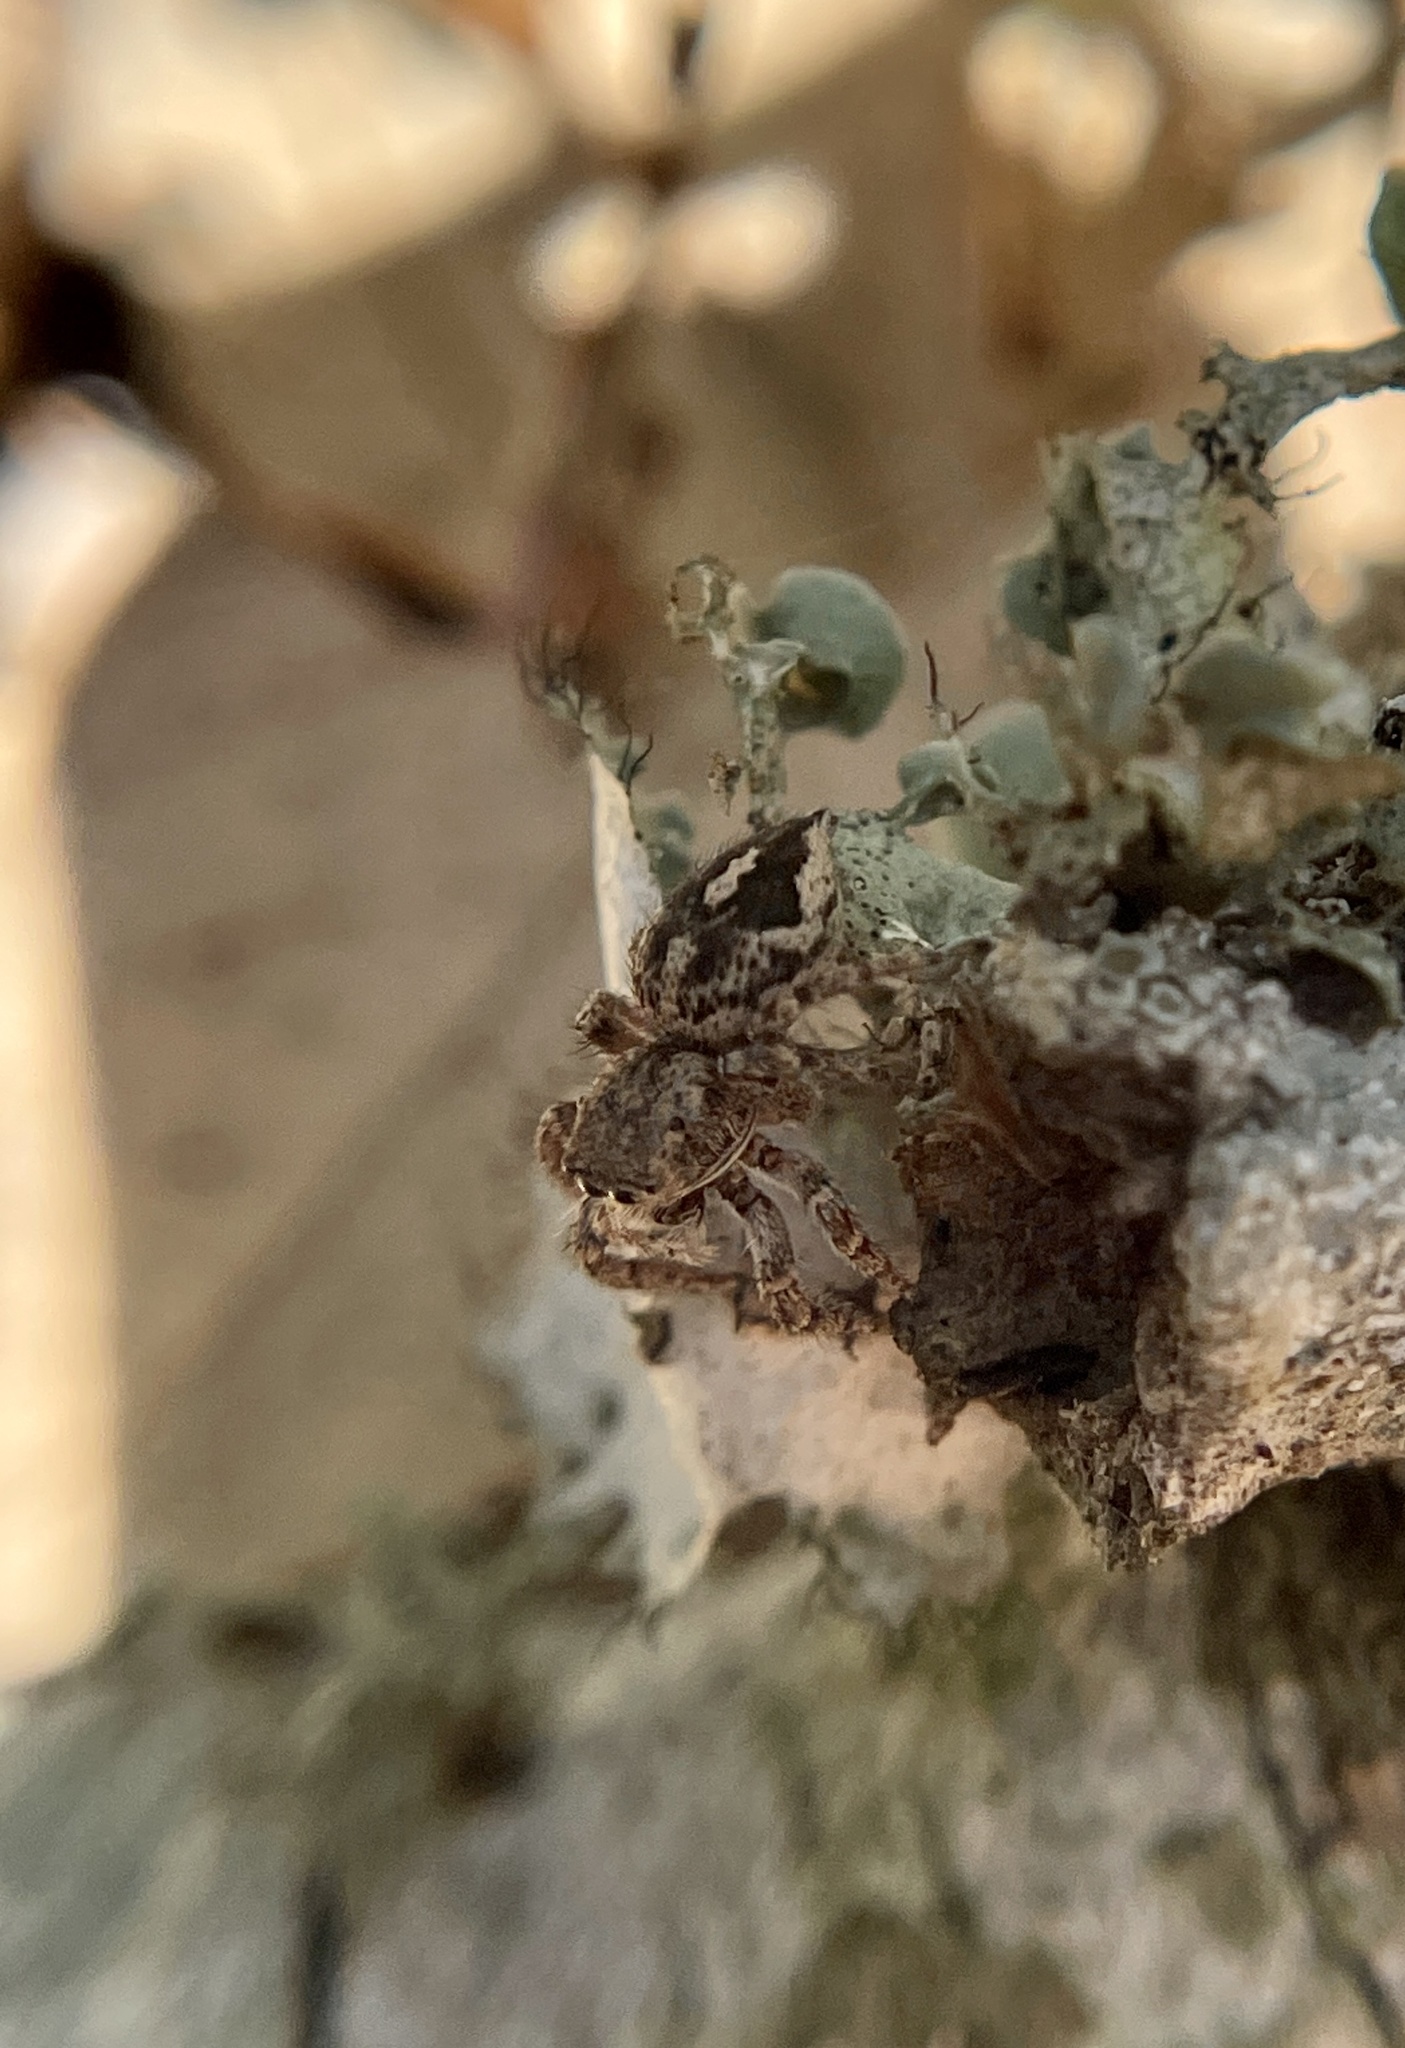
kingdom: Animalia
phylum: Arthropoda
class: Arachnida
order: Araneae
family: Salticidae
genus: Habronattus
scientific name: Habronattus fallax
